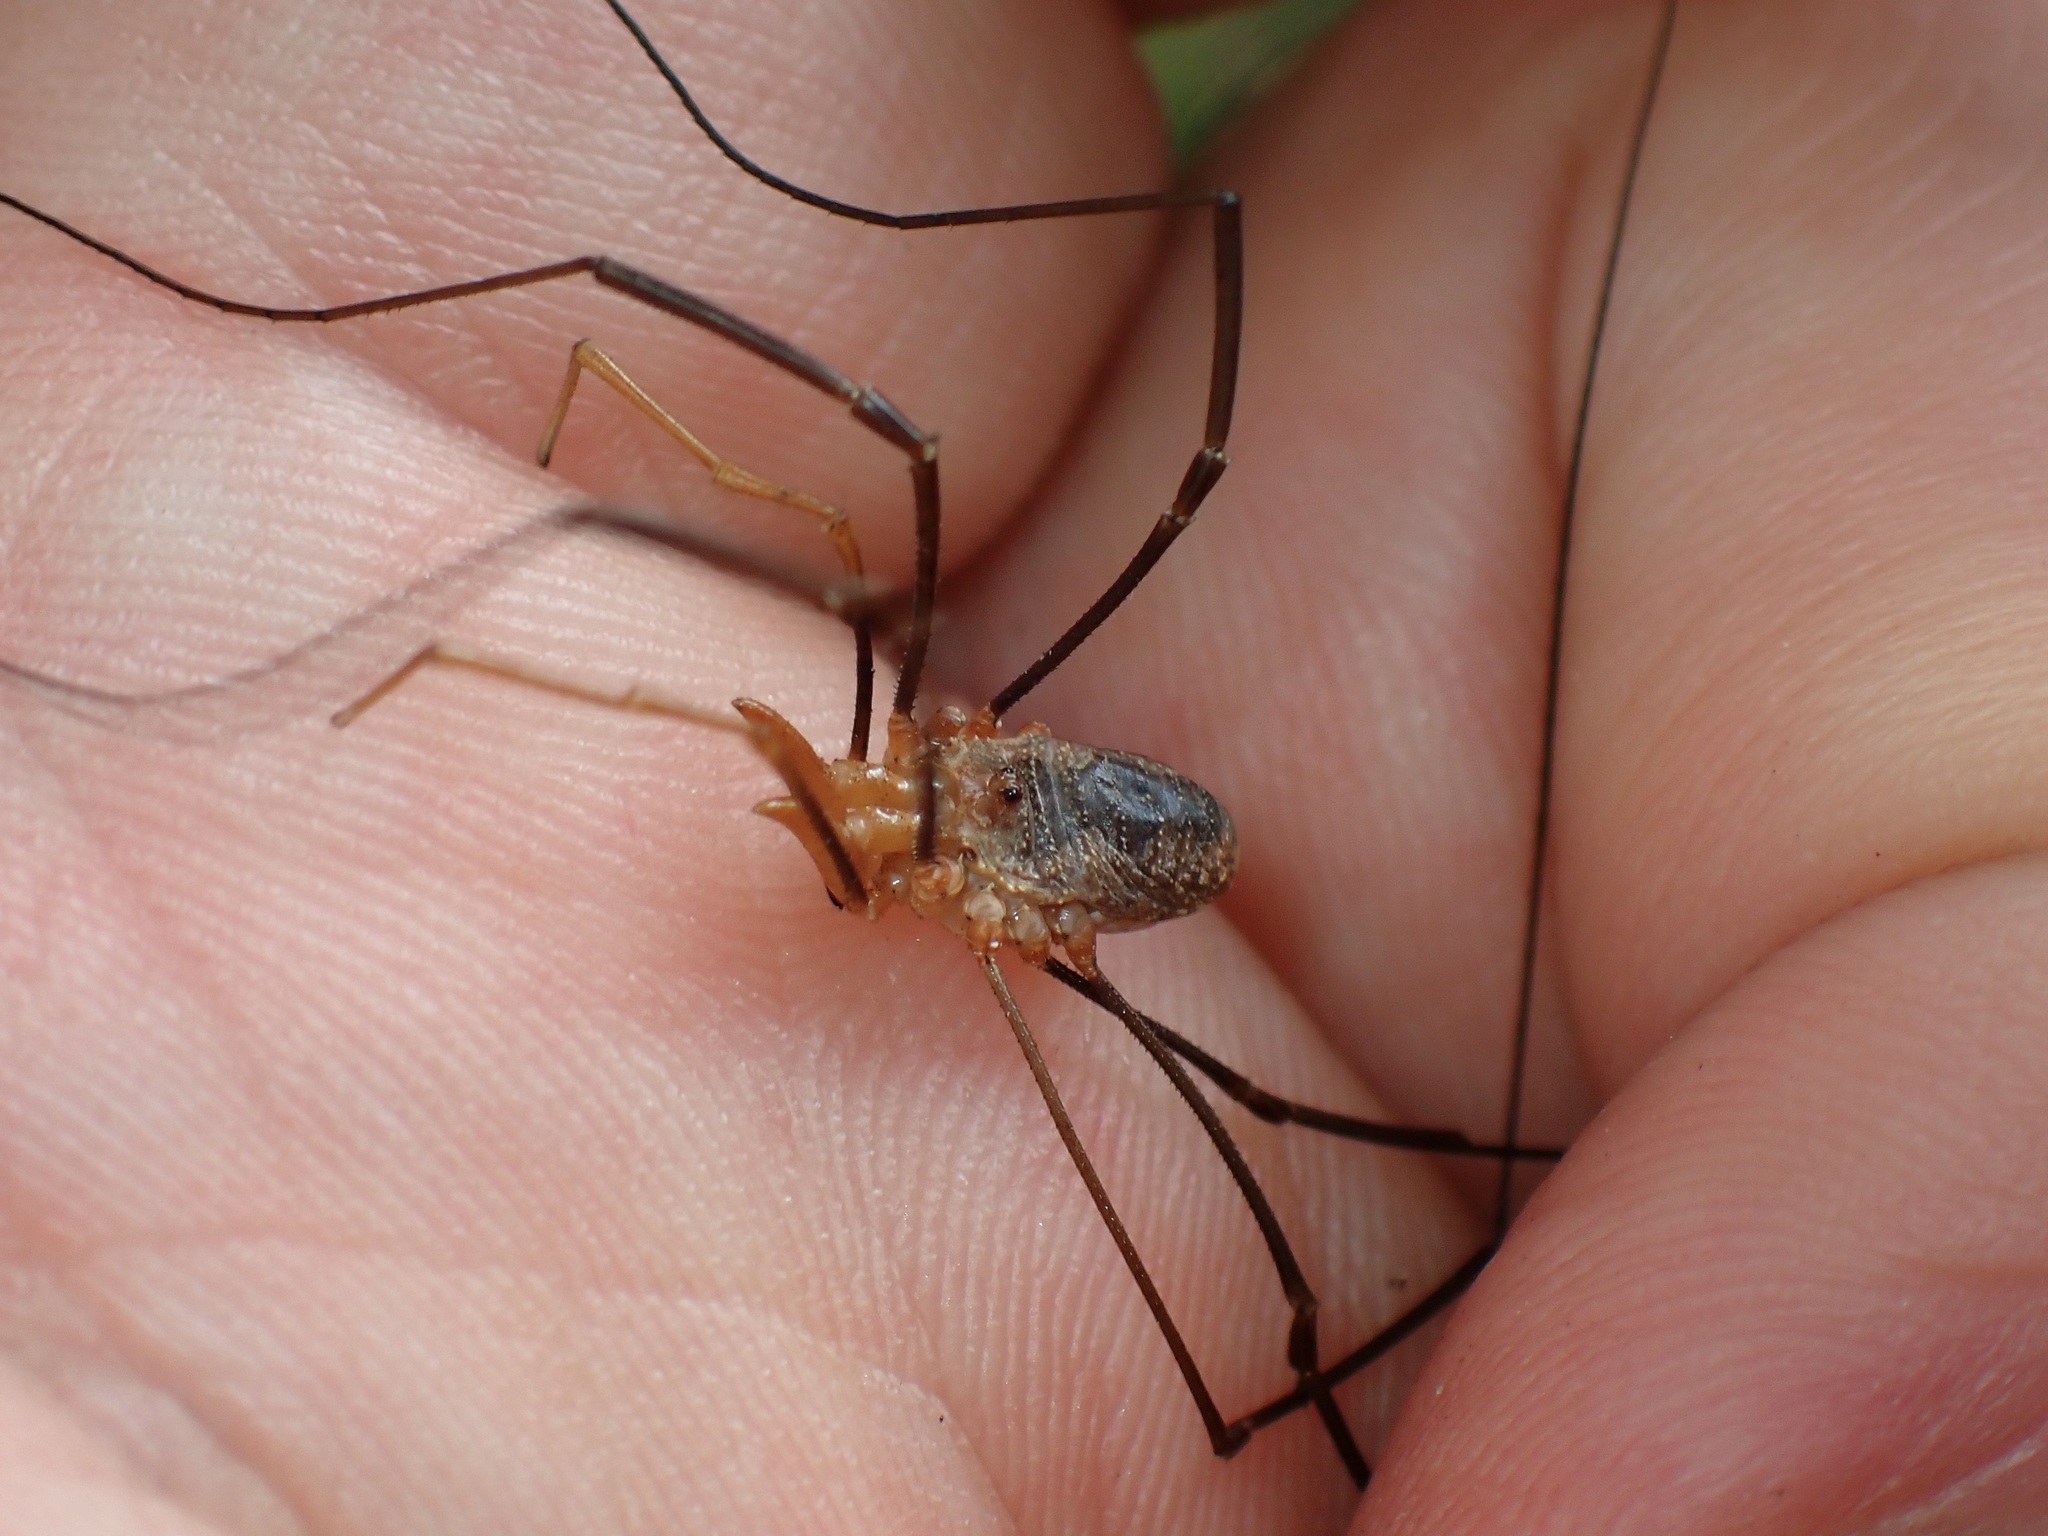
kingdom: Animalia
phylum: Arthropoda
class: Arachnida
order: Opiliones
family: Phalangiidae
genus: Phalangium
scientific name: Phalangium opilio
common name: Daddy longleg
